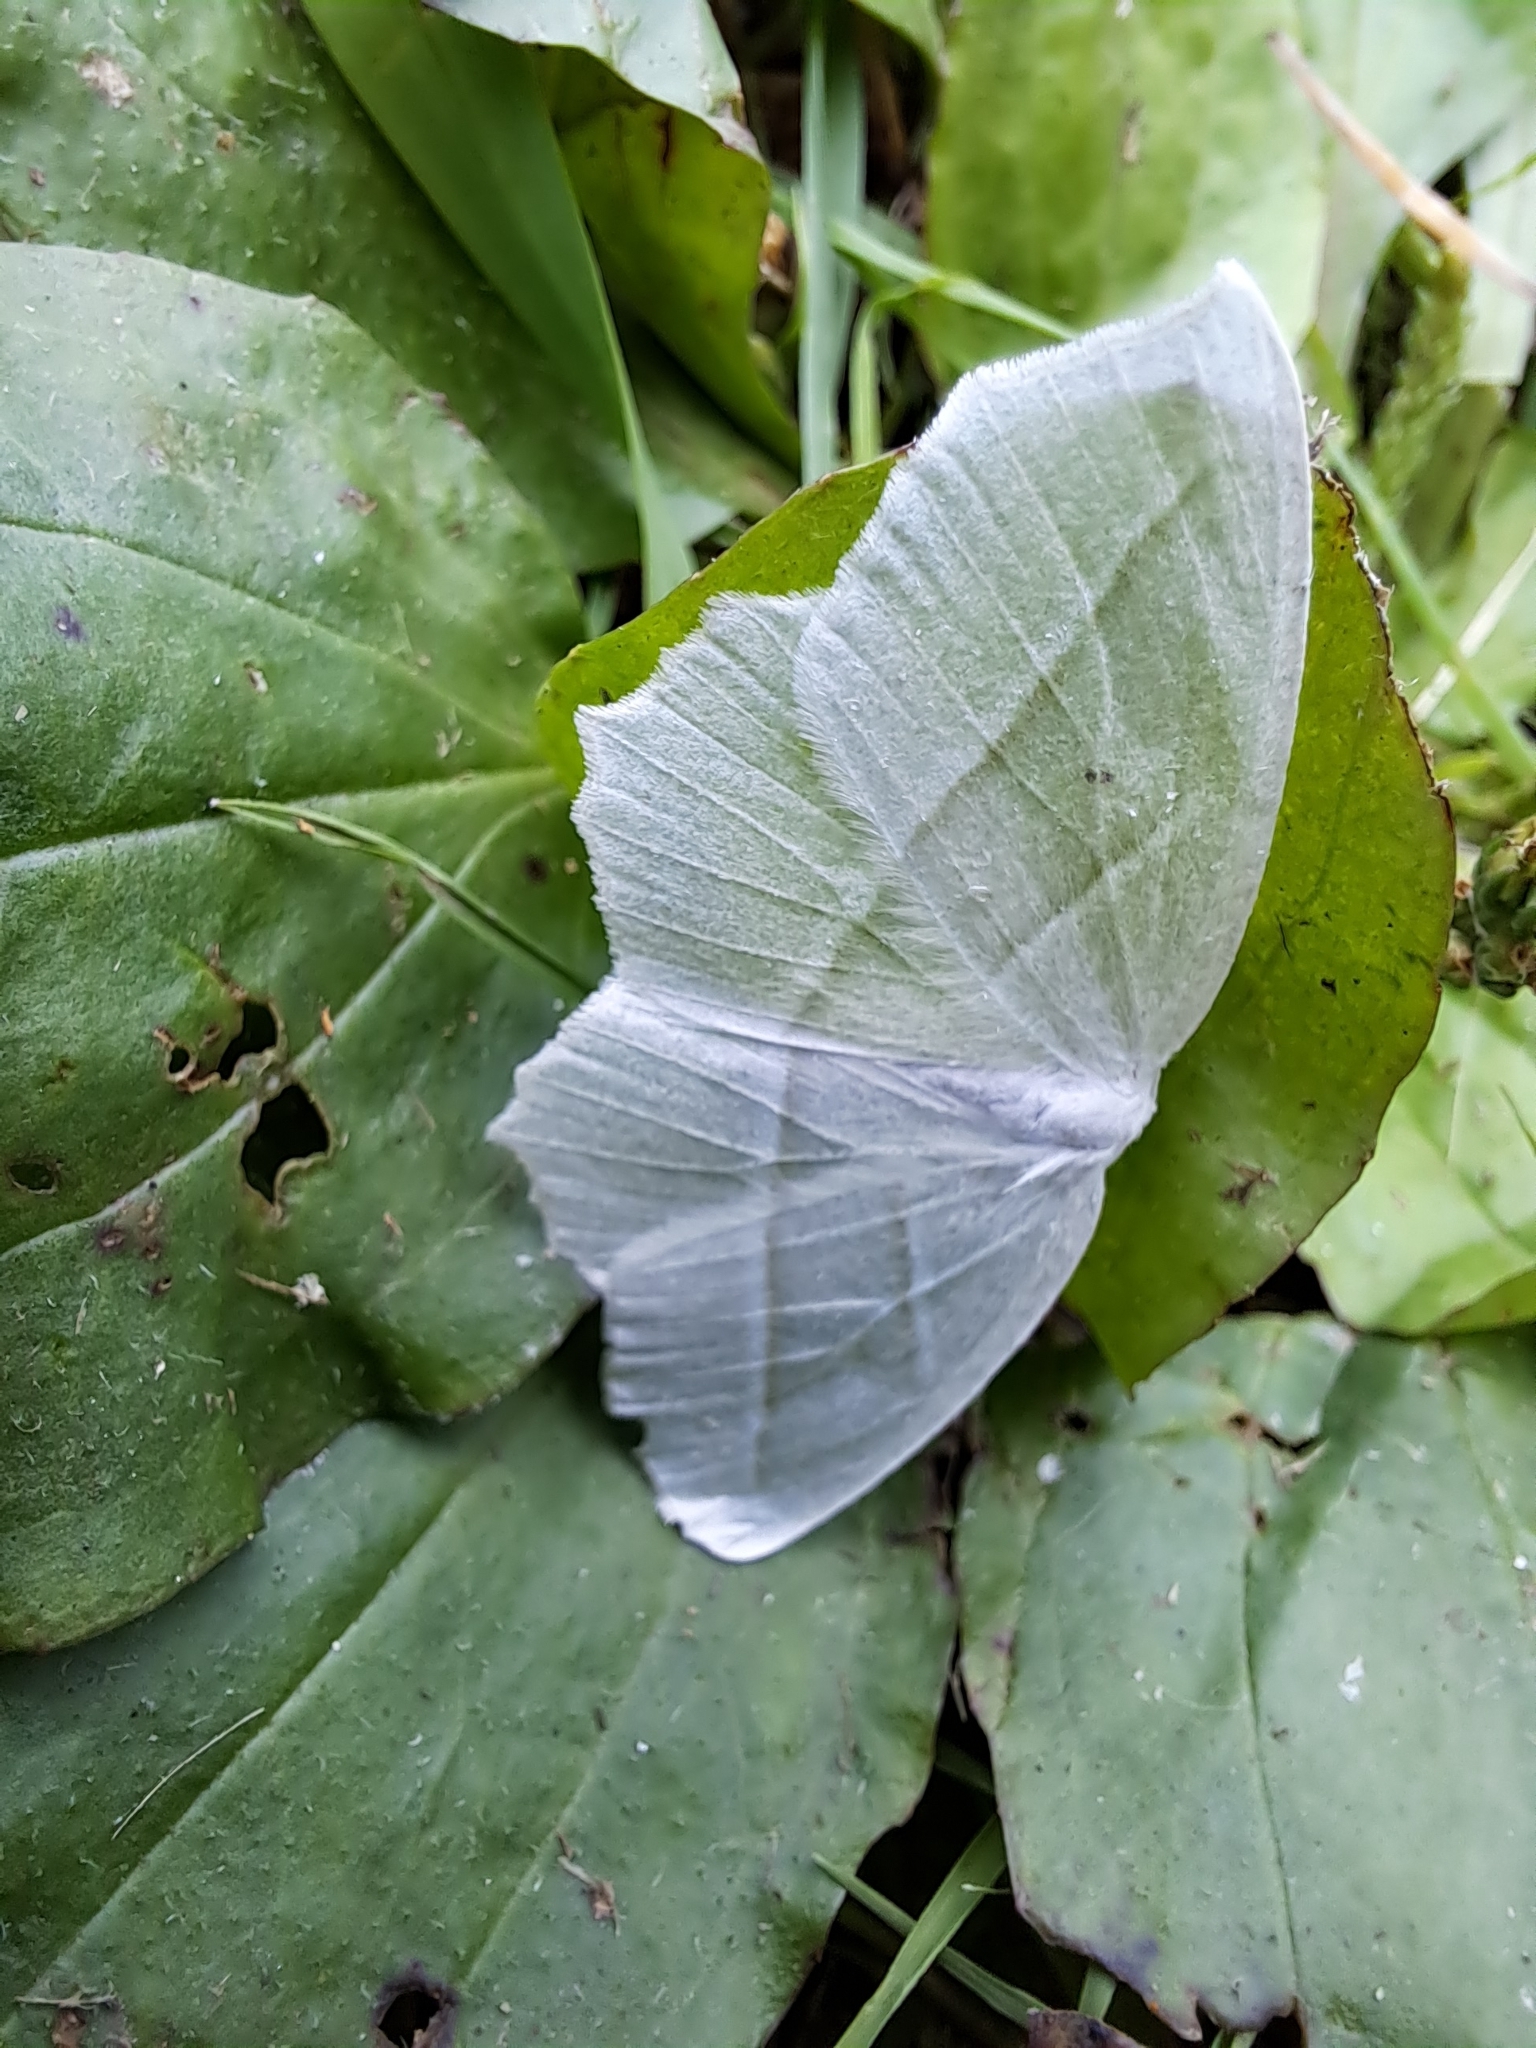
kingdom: Animalia
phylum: Arthropoda
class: Insecta
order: Lepidoptera
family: Geometridae
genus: Campaea
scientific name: Campaea perlata
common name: Fringed looper
